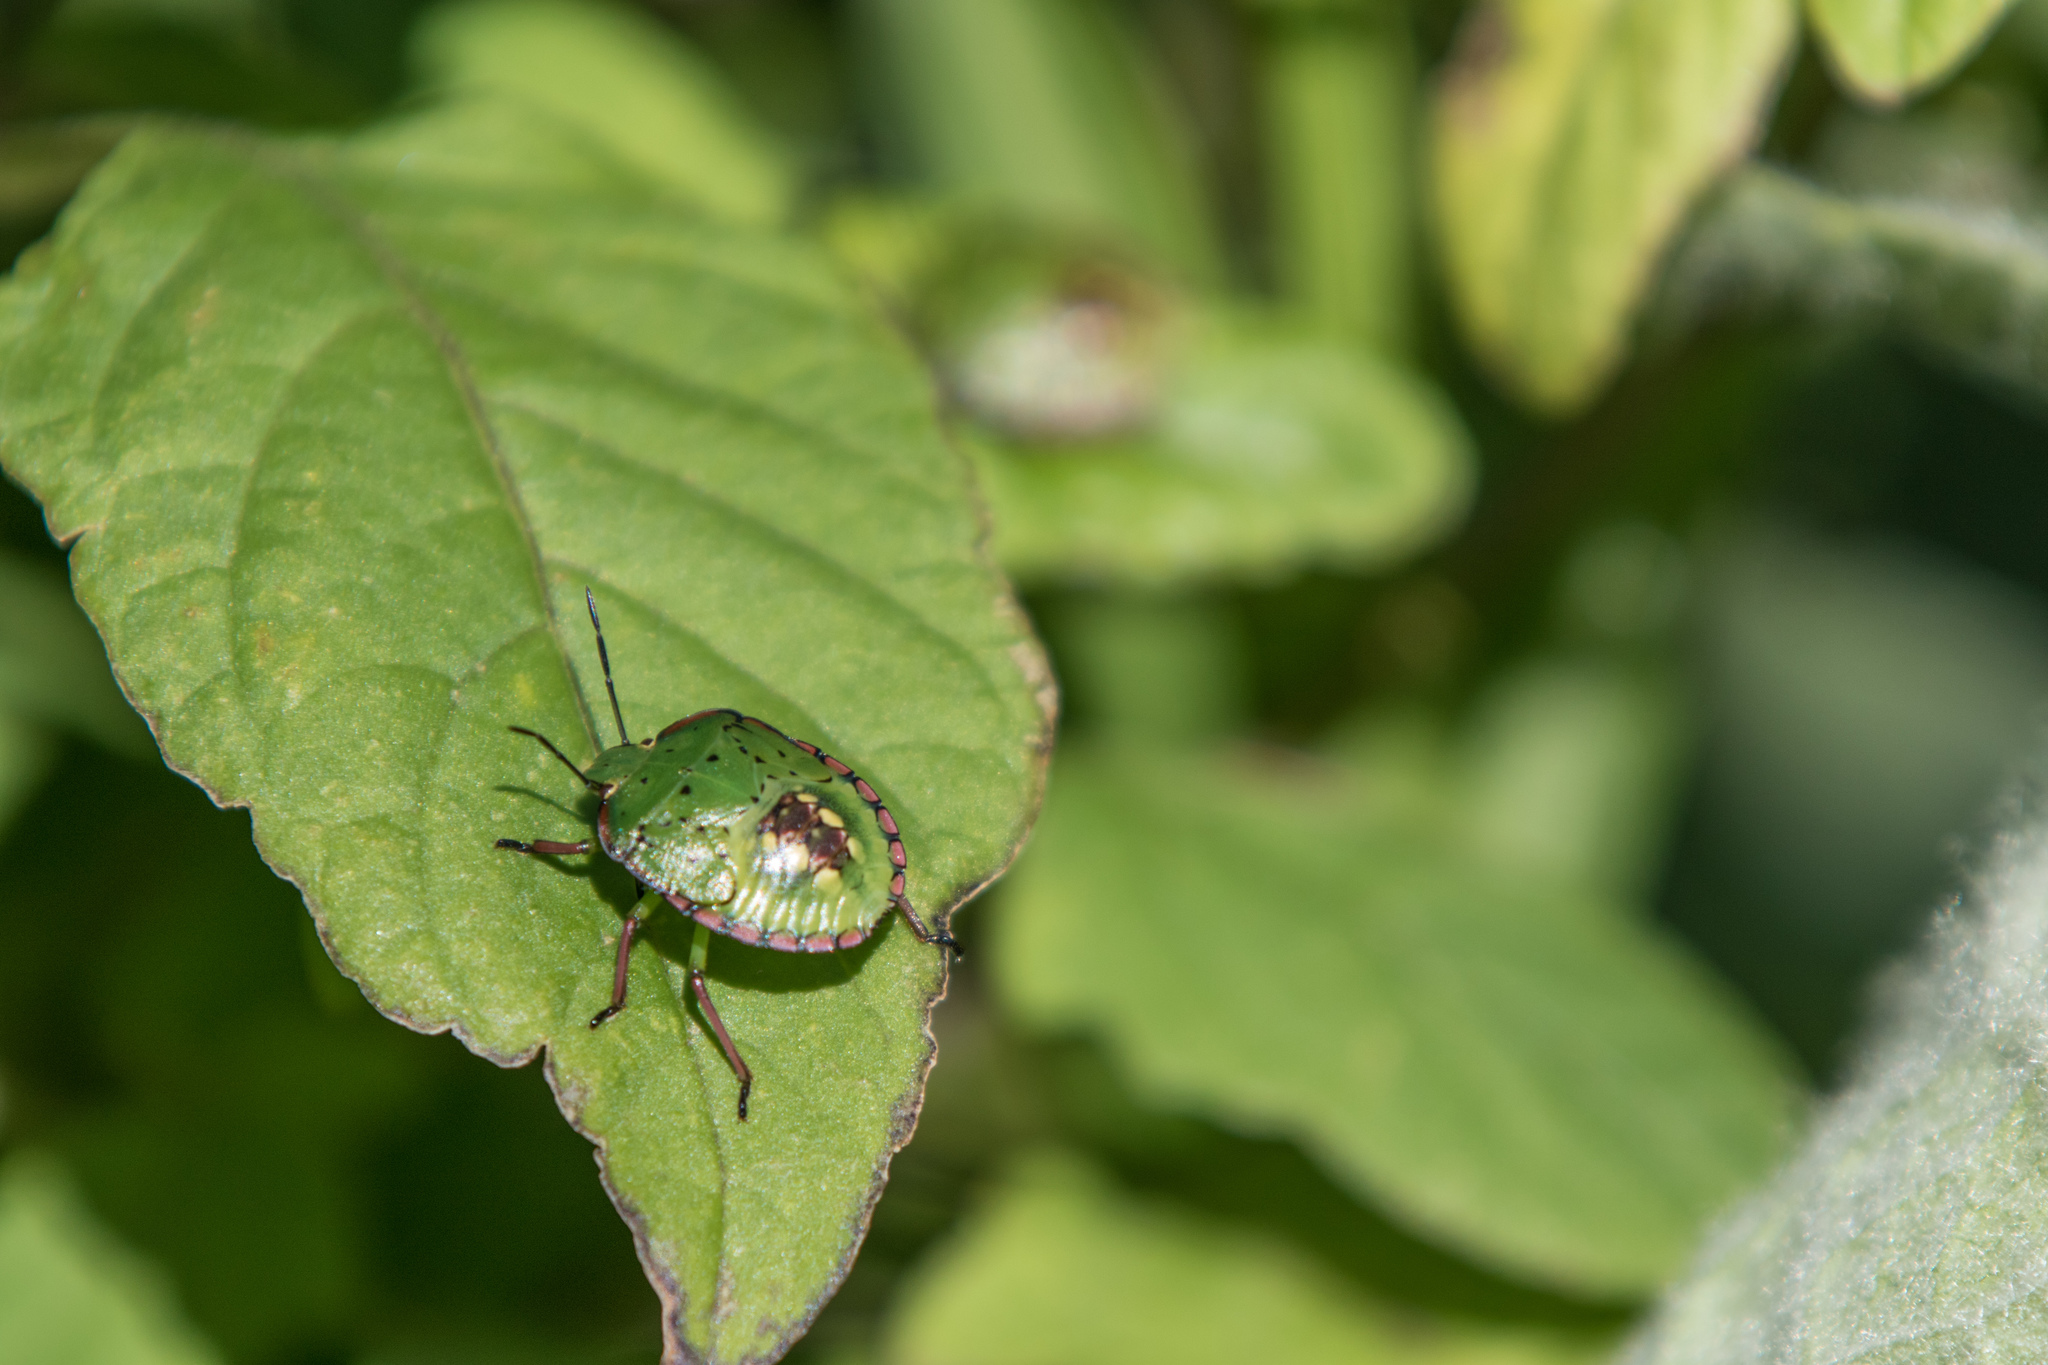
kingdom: Animalia
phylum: Arthropoda
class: Insecta
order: Hemiptera
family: Pentatomidae
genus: Nezara
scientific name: Nezara viridula
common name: Southern green stink bug
